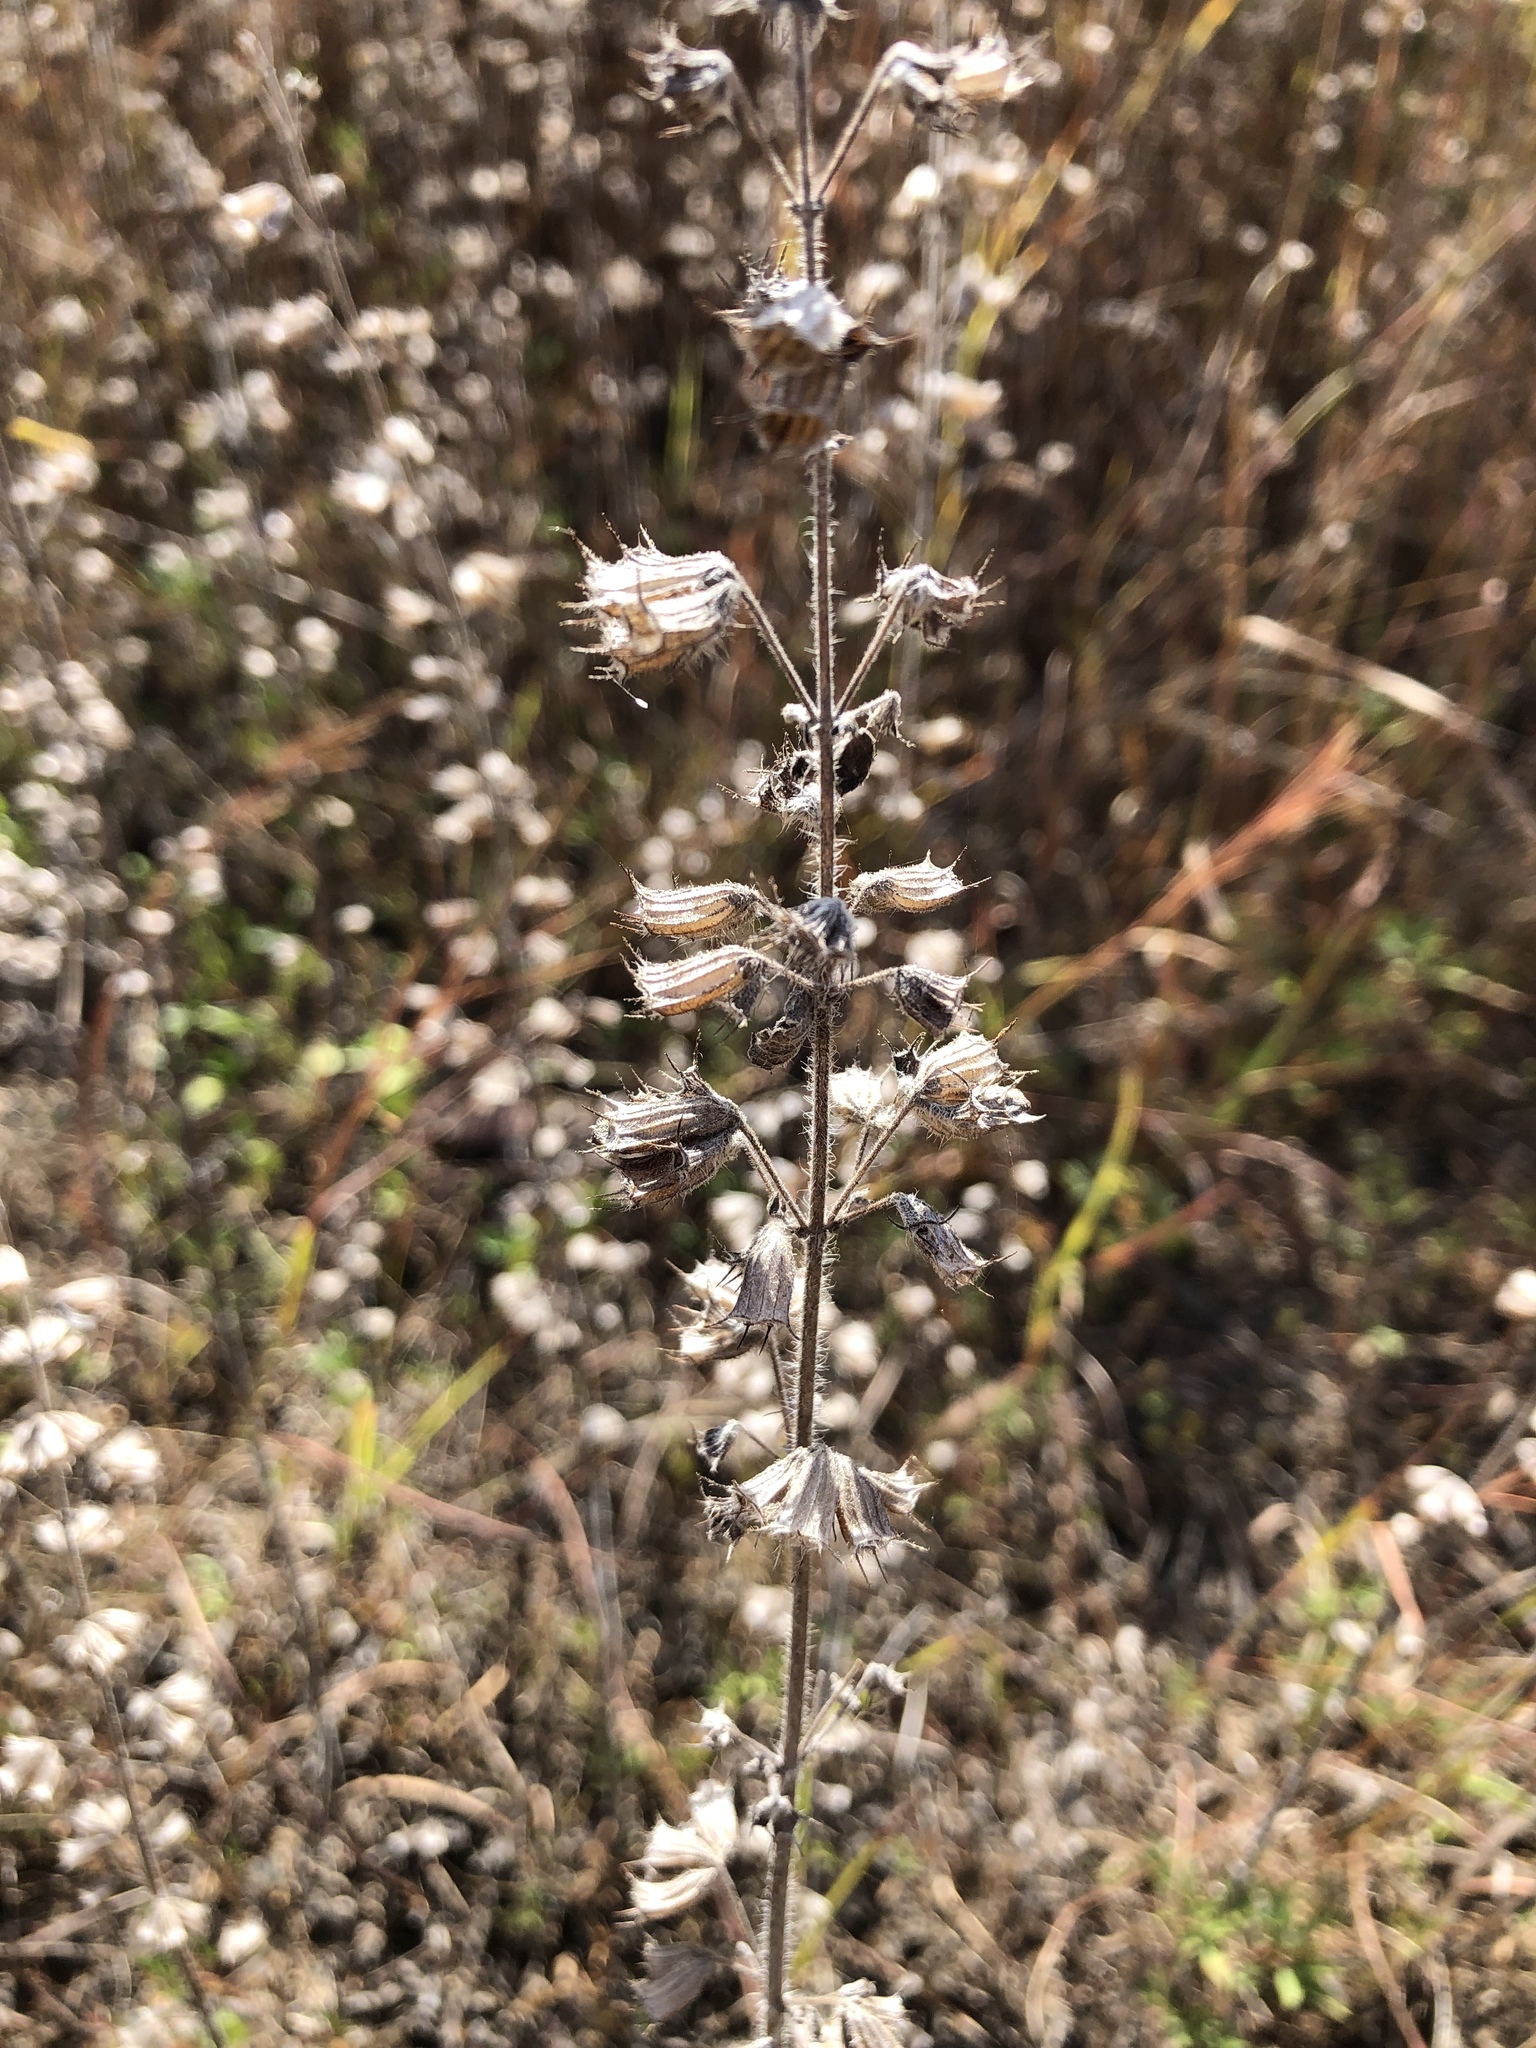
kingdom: Plantae
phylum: Tracheophyta
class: Magnoliopsida
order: Lamiales
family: Lamiaceae
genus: Mesosphaerum
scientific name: Mesosphaerum suaveolens
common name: Pignut
